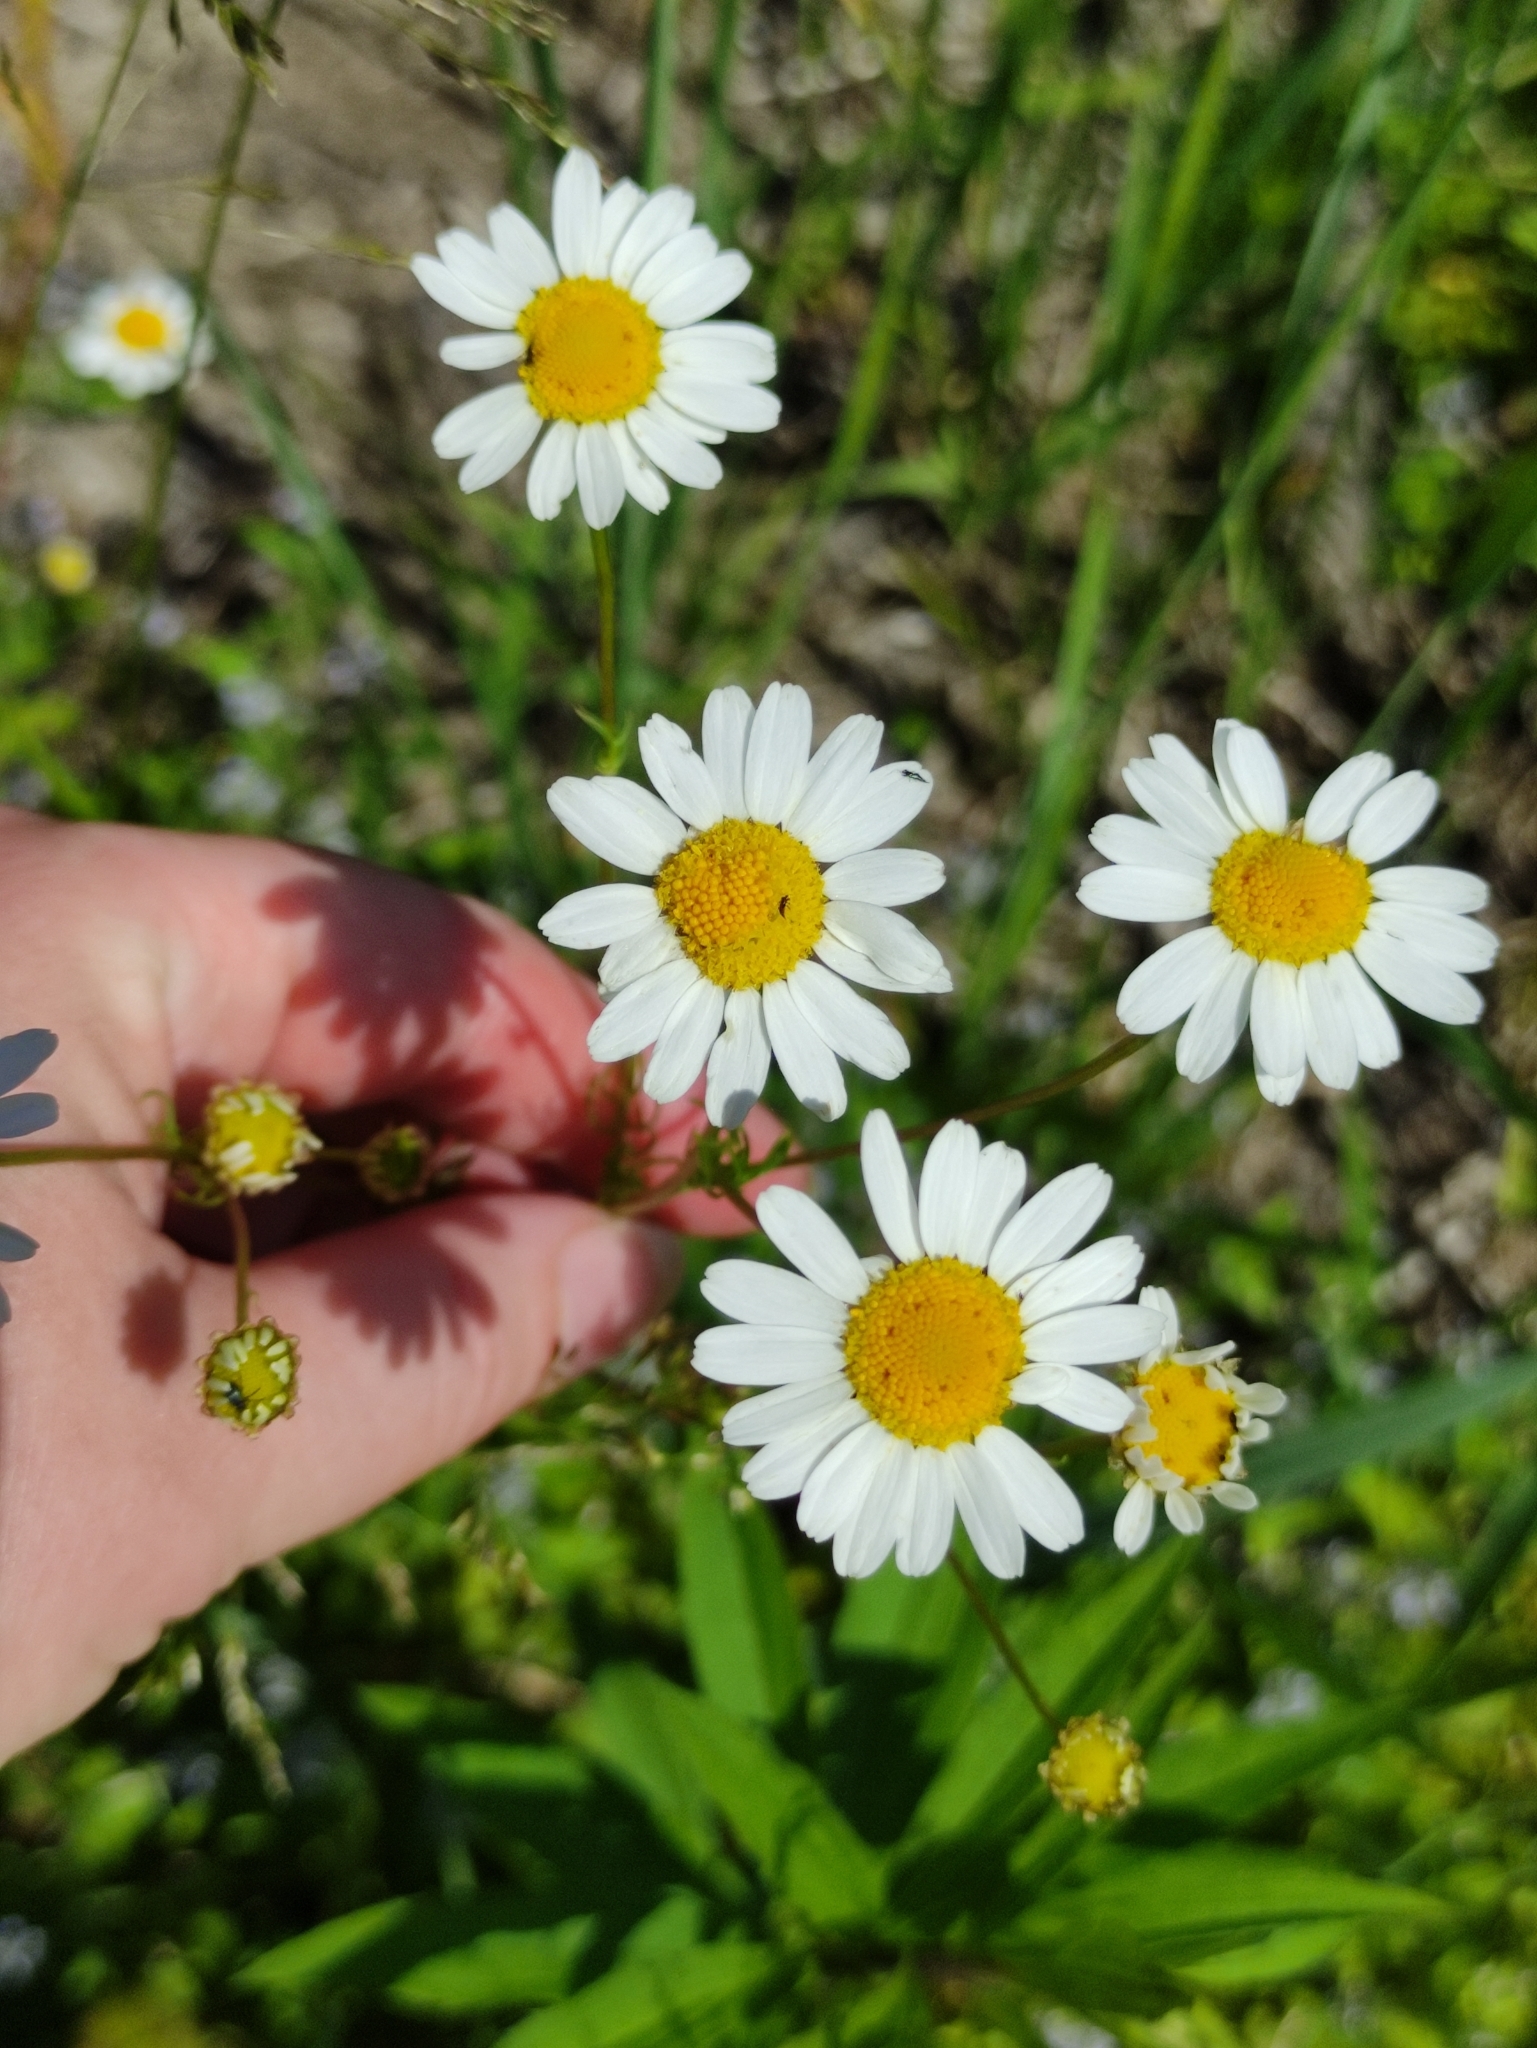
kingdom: Plantae
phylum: Tracheophyta
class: Magnoliopsida
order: Asterales
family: Asteraceae
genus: Tripleurospermum
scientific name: Tripleurospermum inodorum
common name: Scentless mayweed
